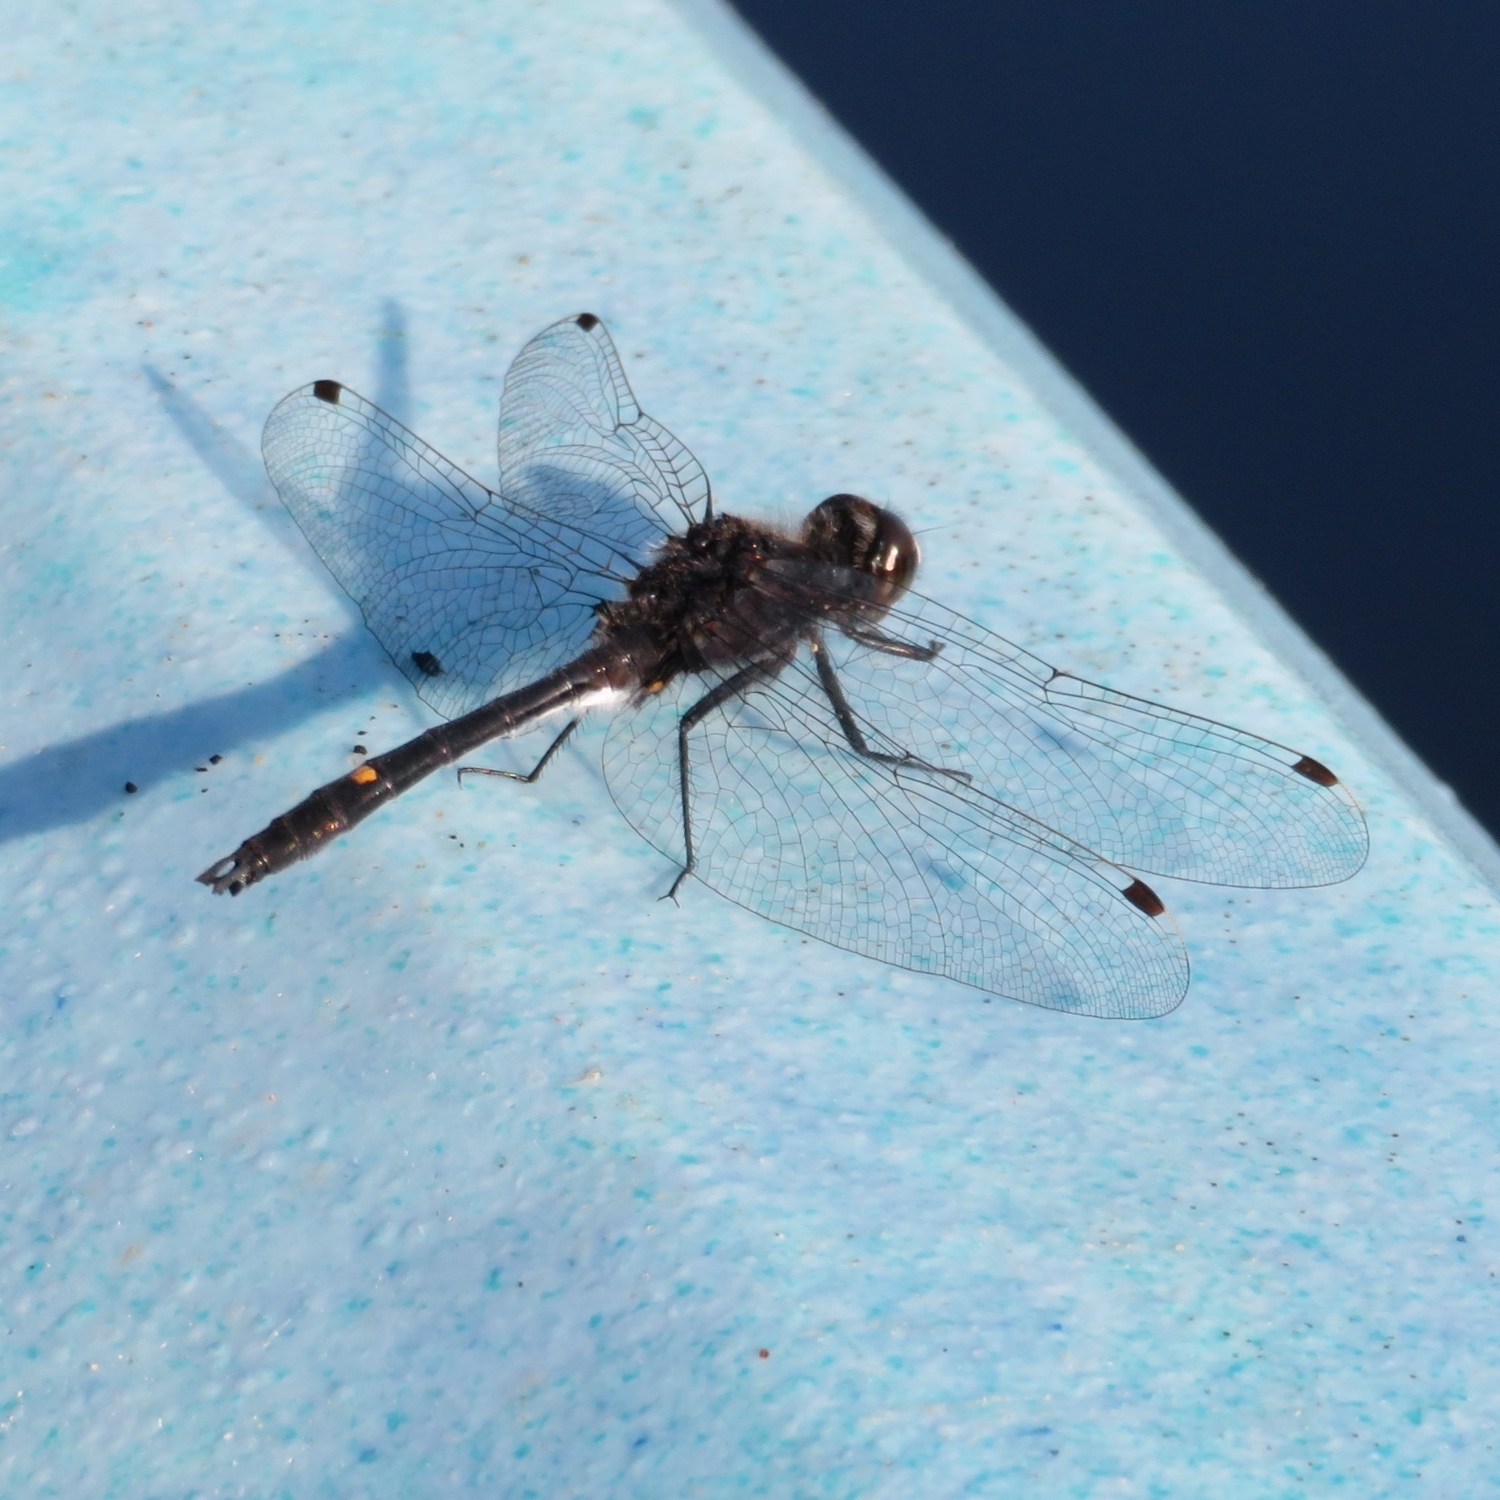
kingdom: Animalia
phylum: Arthropoda
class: Insecta
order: Odonata
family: Libellulidae
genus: Leucorrhinia
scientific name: Leucorrhinia intacta
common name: Dot-tailed whiteface
